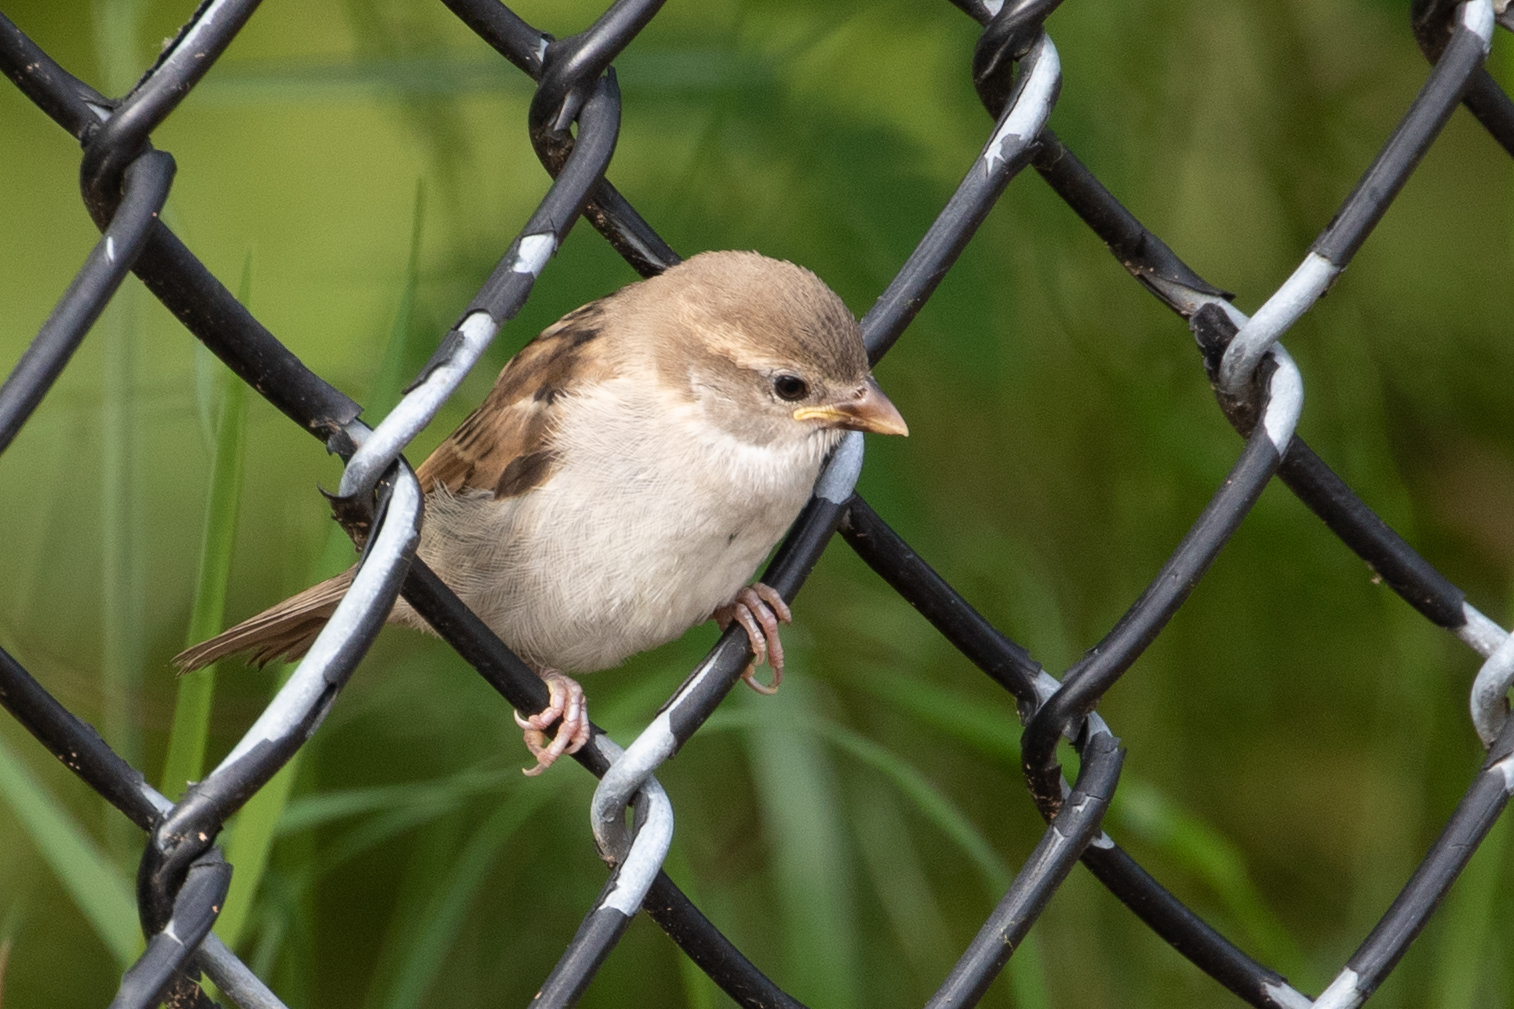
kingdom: Animalia
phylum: Chordata
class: Aves
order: Passeriformes
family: Passeridae
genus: Passer
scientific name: Passer domesticus
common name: House sparrow
